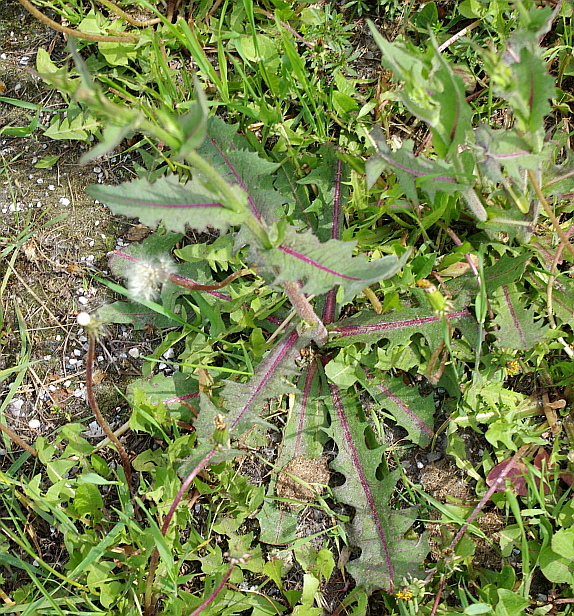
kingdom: Plantae
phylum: Tracheophyta
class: Magnoliopsida
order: Asterales
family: Asteraceae
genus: Cichorium
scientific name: Cichorium intybus
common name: Chicory
